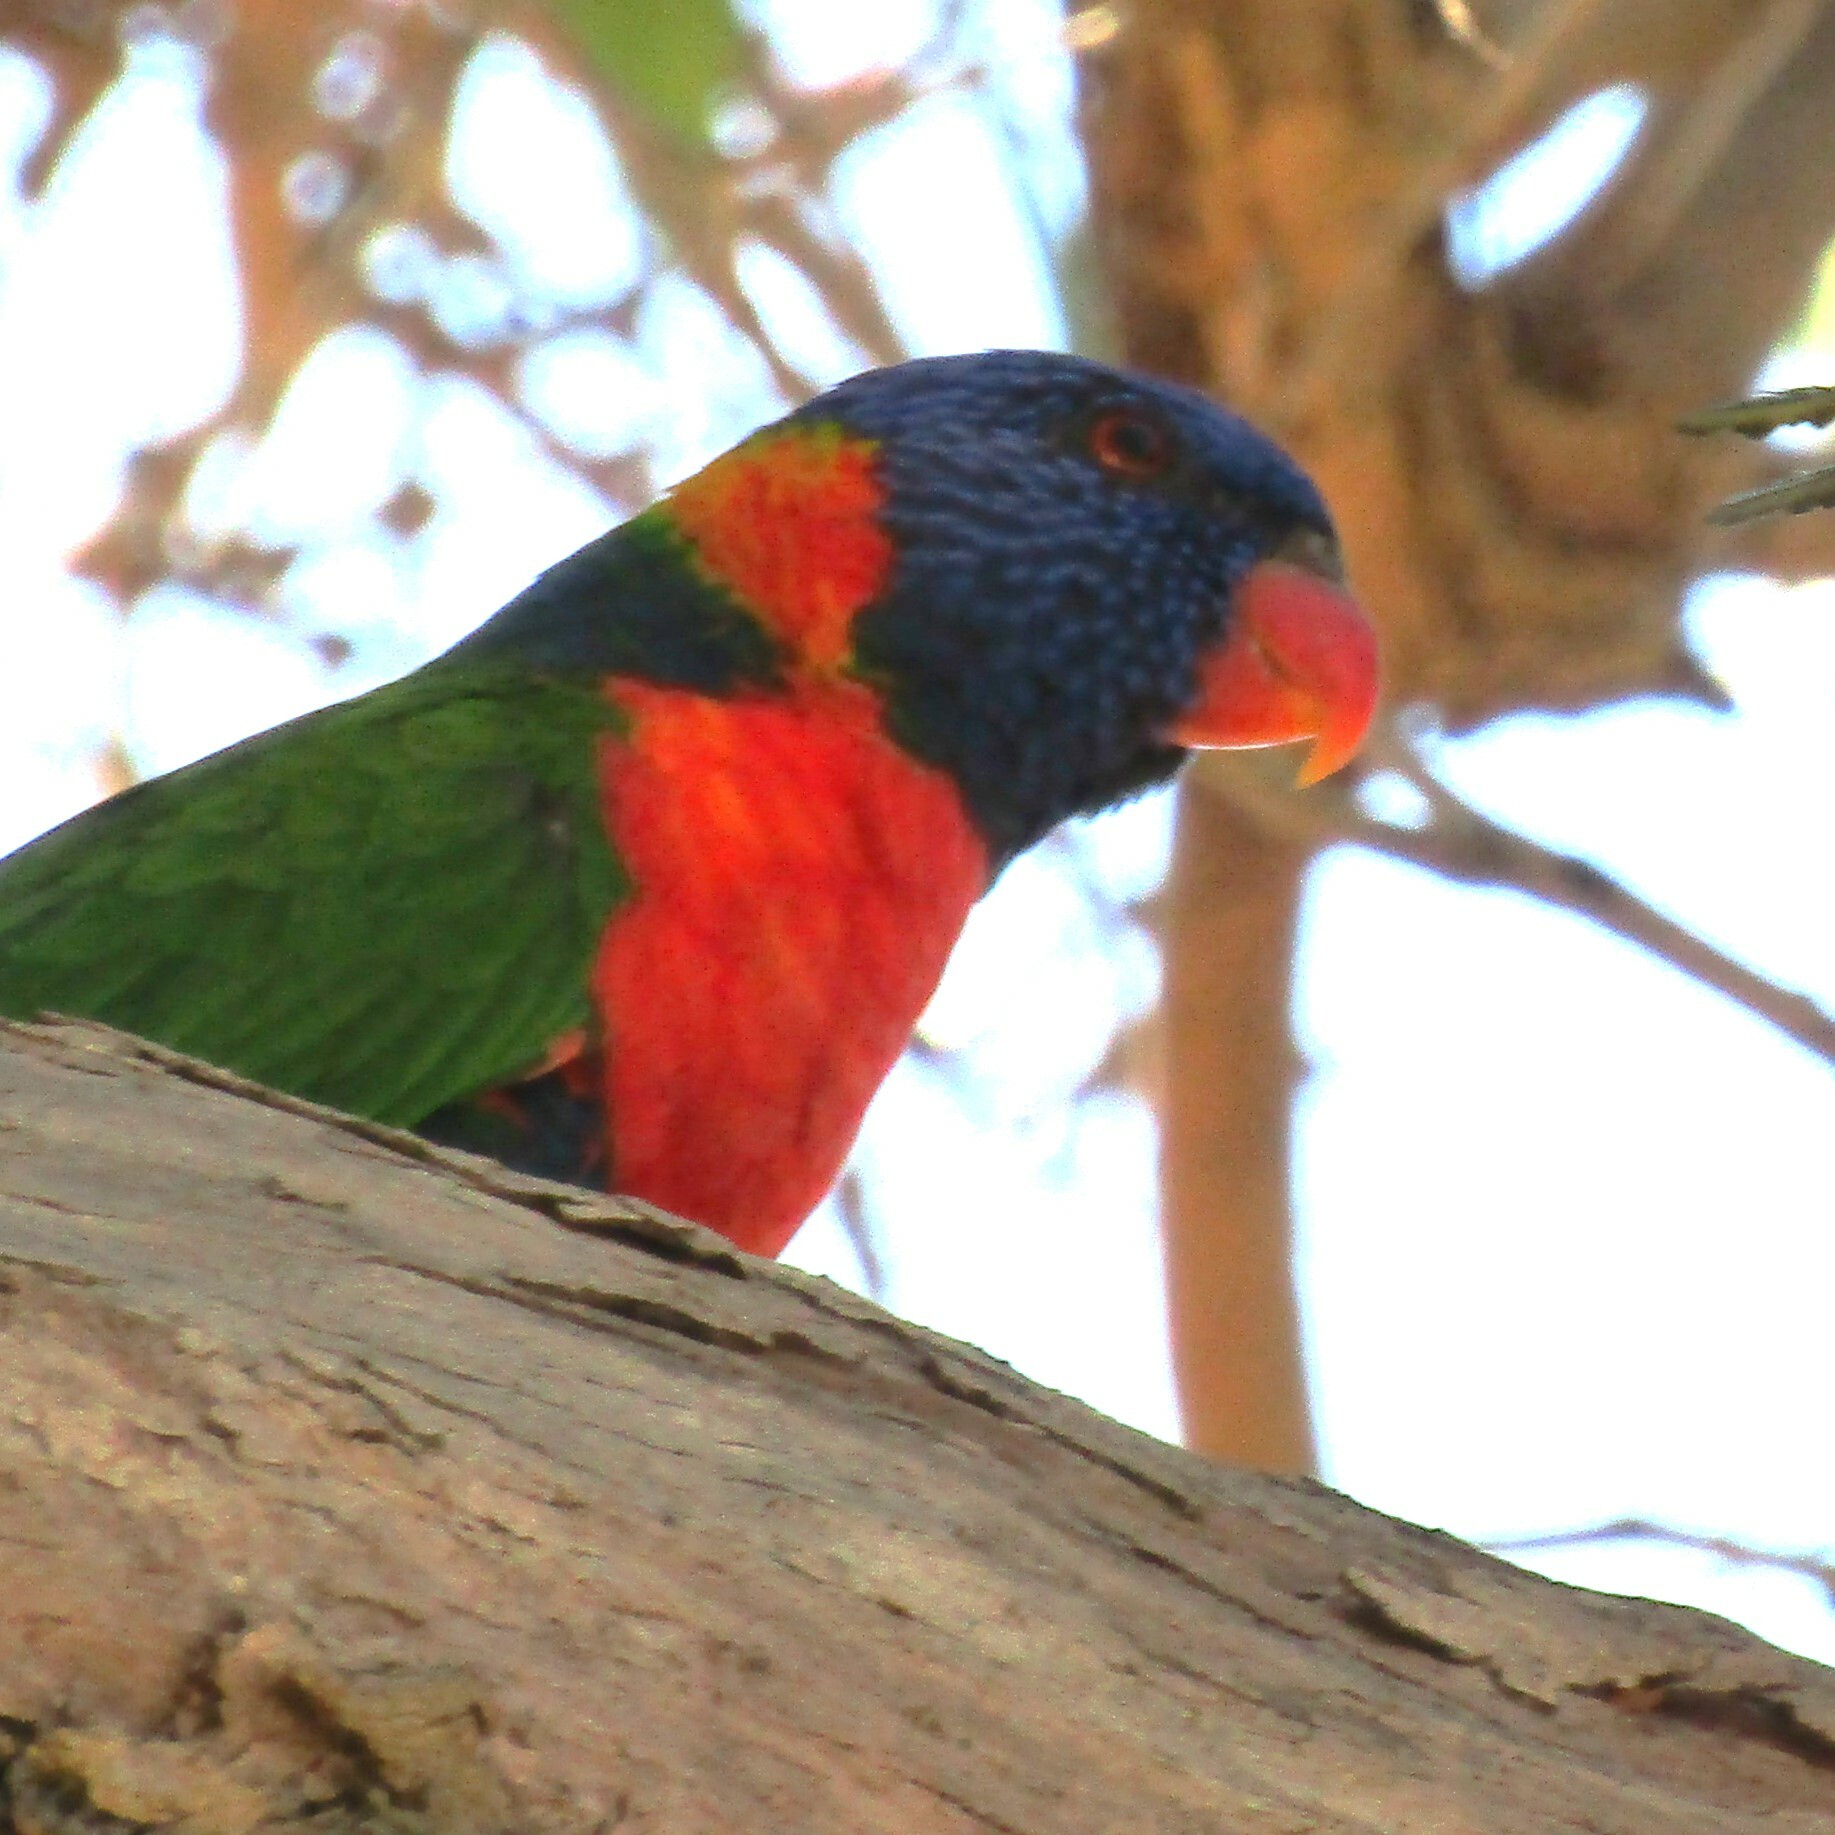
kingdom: Animalia
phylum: Chordata
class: Aves
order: Psittaciformes
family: Psittacidae
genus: Trichoglossus
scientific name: Trichoglossus rubritorquis
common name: Red-collared lorikeet
